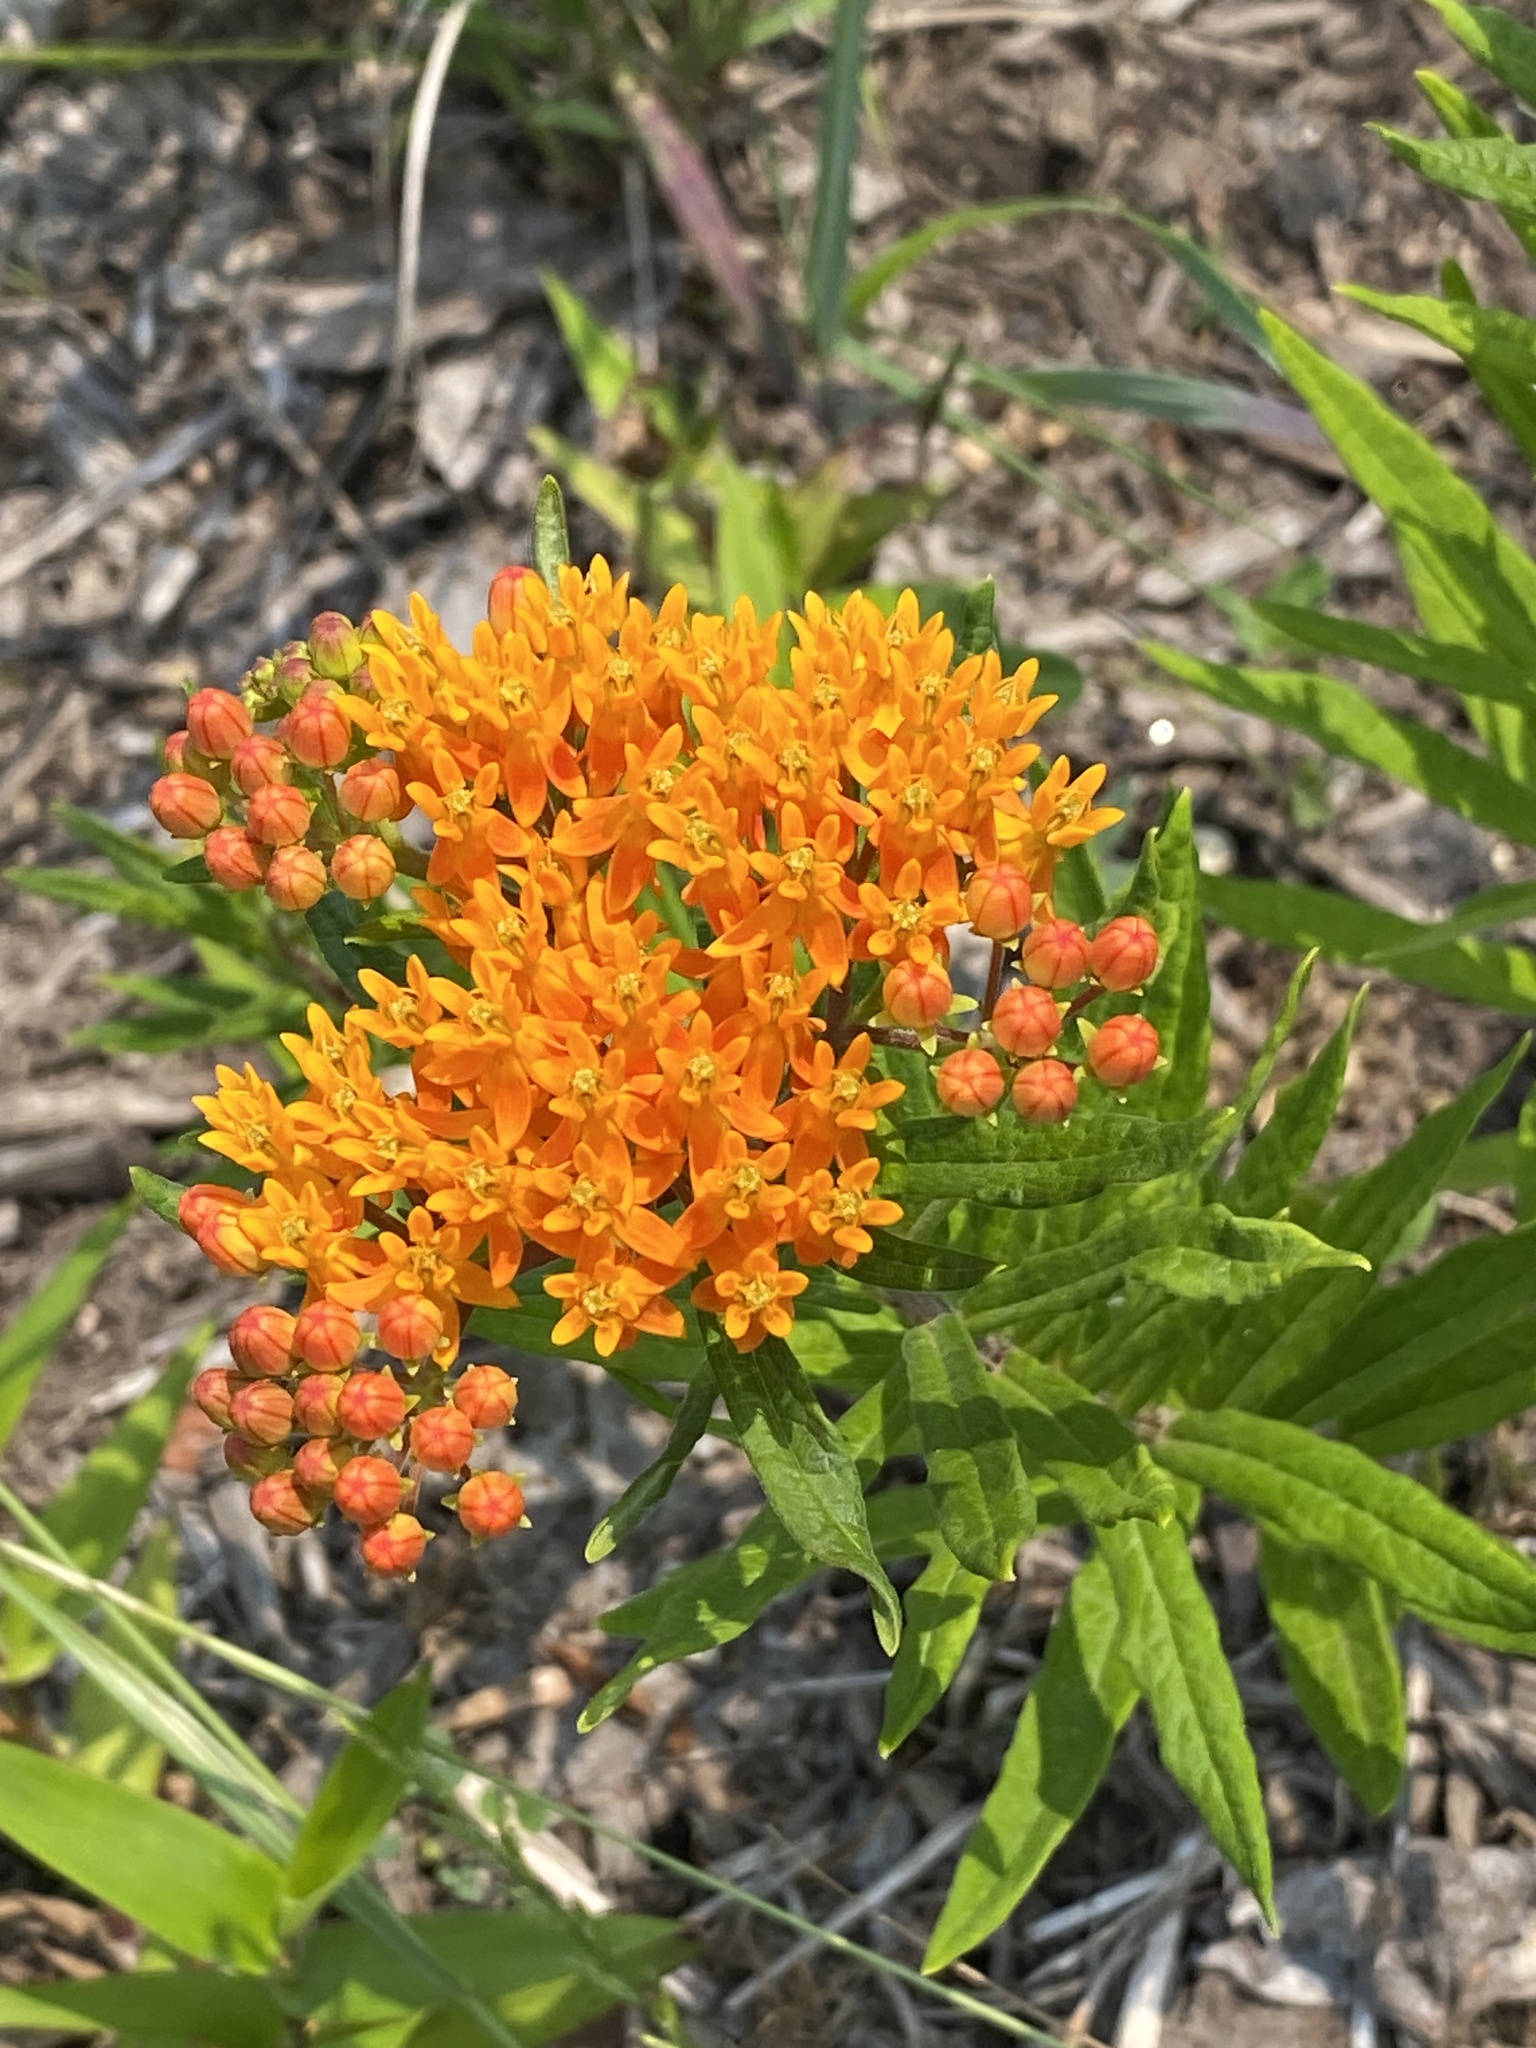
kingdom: Plantae
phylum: Tracheophyta
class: Magnoliopsida
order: Gentianales
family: Apocynaceae
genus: Asclepias
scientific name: Asclepias tuberosa
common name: Butterfly milkweed
